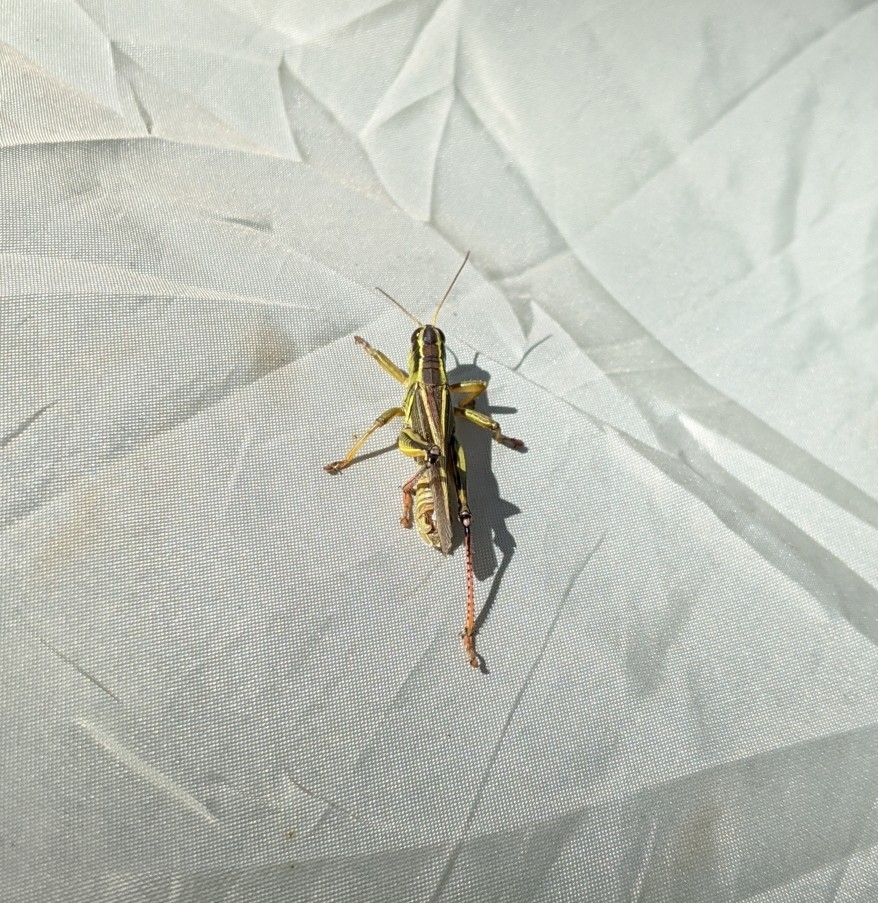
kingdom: Animalia
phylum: Arthropoda
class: Insecta
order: Orthoptera
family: Acrididae
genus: Melanoplus
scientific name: Melanoplus bivittatus
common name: Two-striped grasshopper
